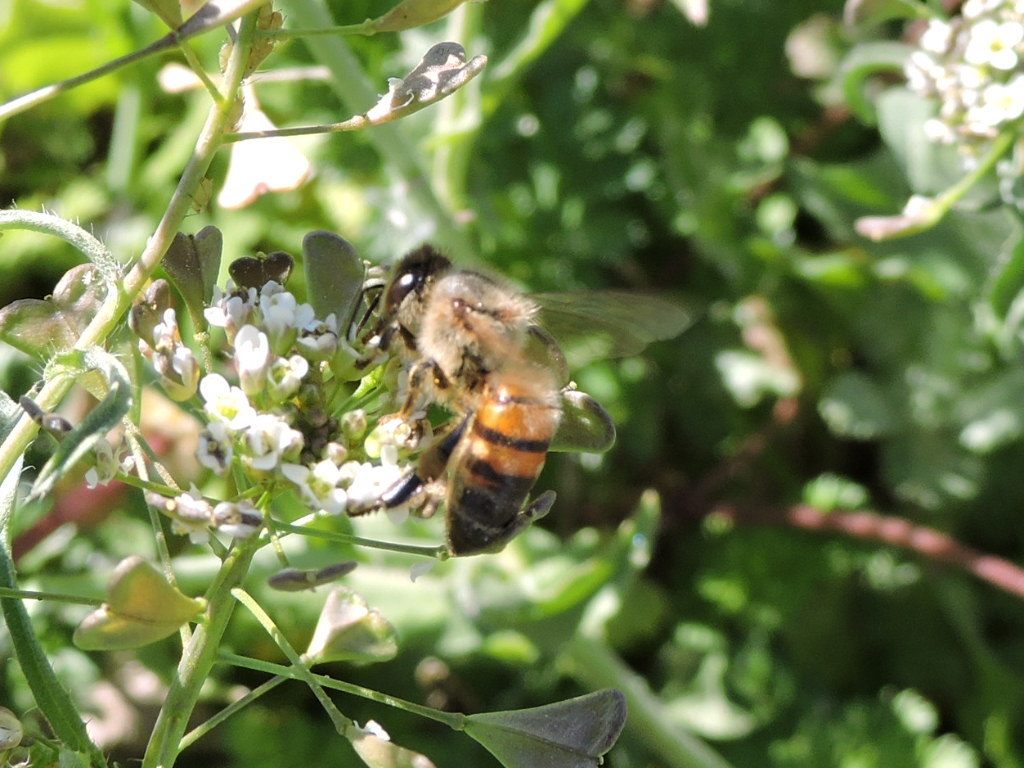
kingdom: Animalia
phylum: Arthropoda
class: Insecta
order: Hymenoptera
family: Apidae
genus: Apis
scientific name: Apis mellifera
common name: Honey bee
